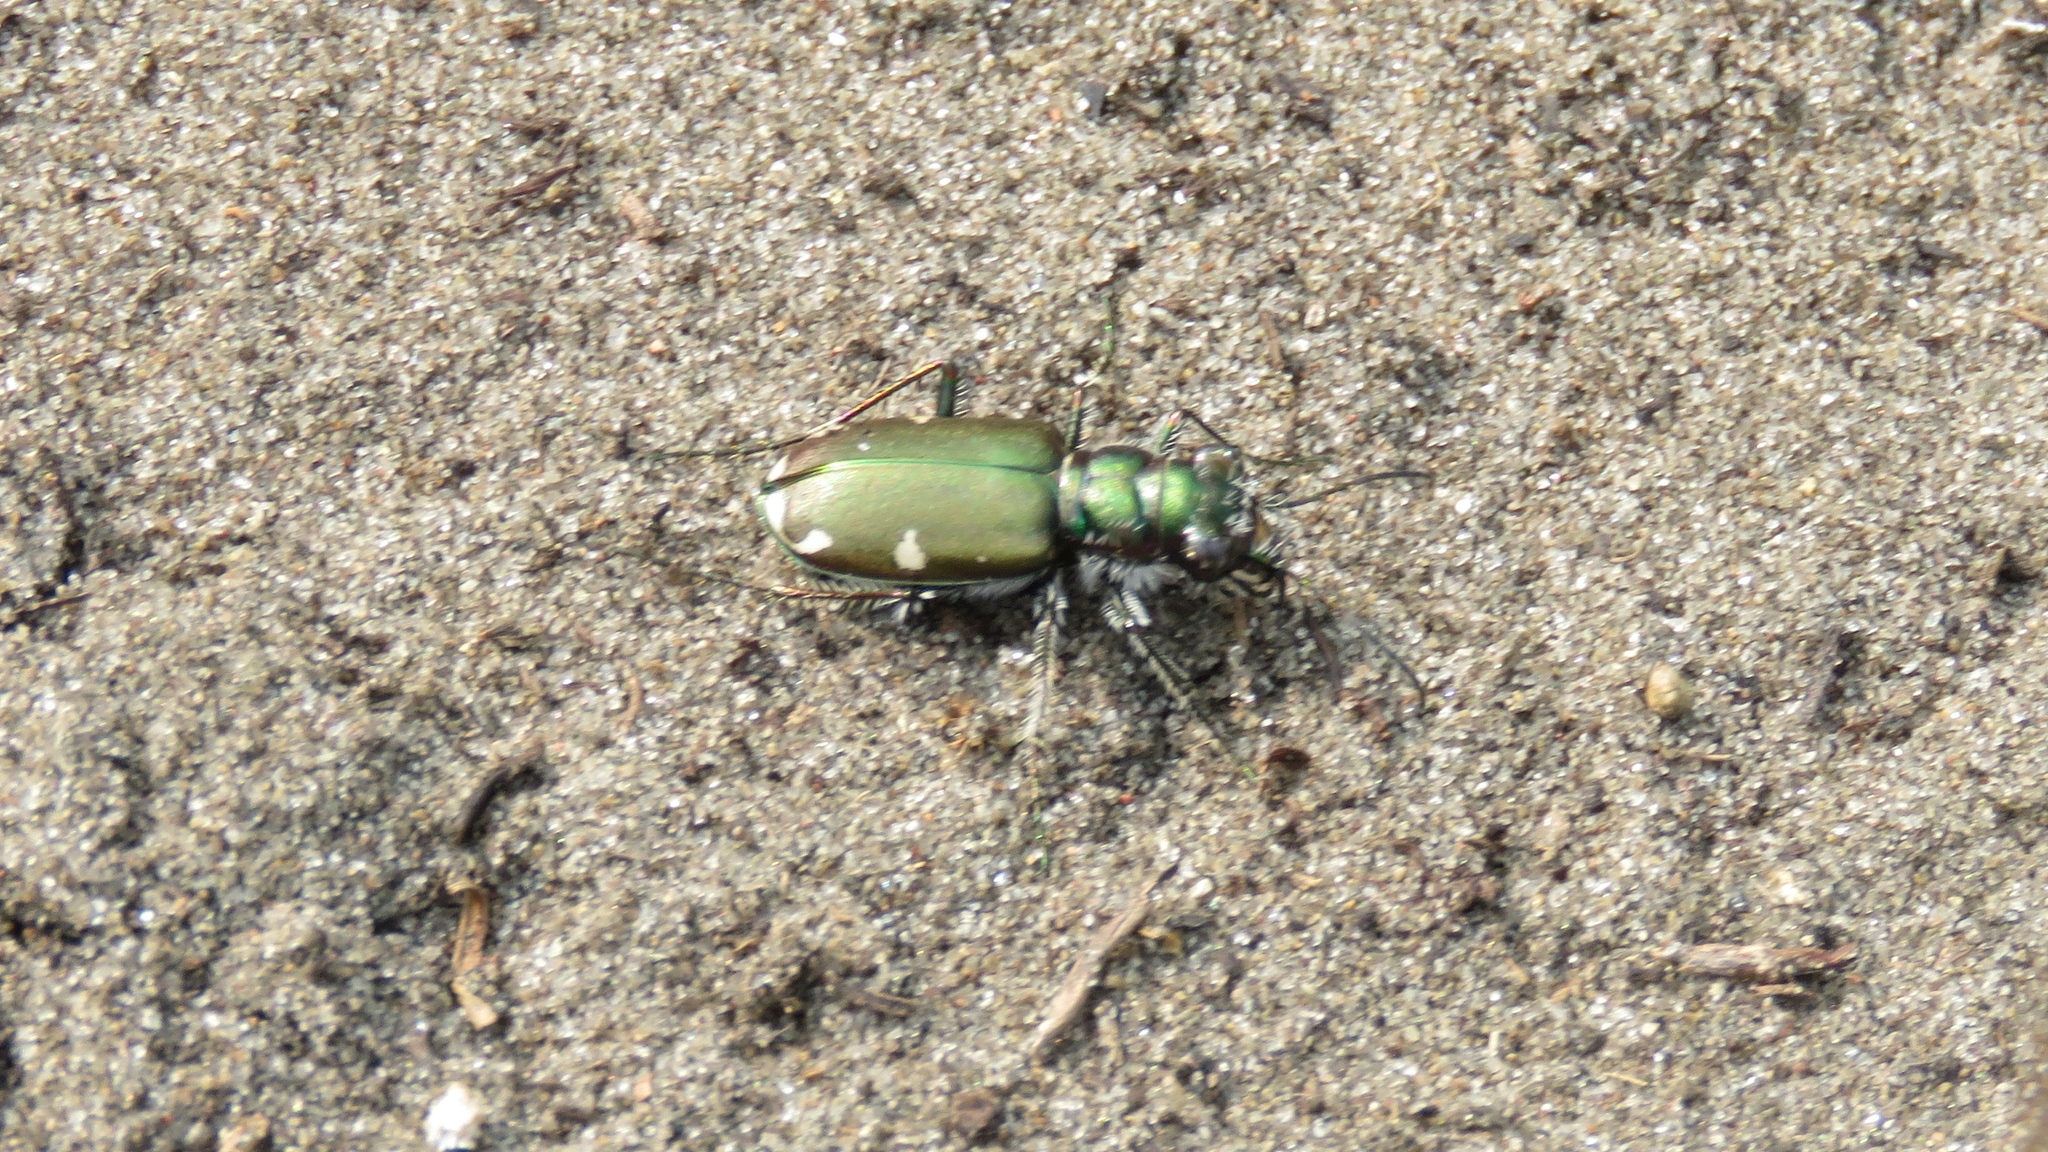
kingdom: Animalia
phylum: Arthropoda
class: Insecta
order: Coleoptera
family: Carabidae
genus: Cicindela
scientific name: Cicindela scutellaris
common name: Festive tiger beetle
